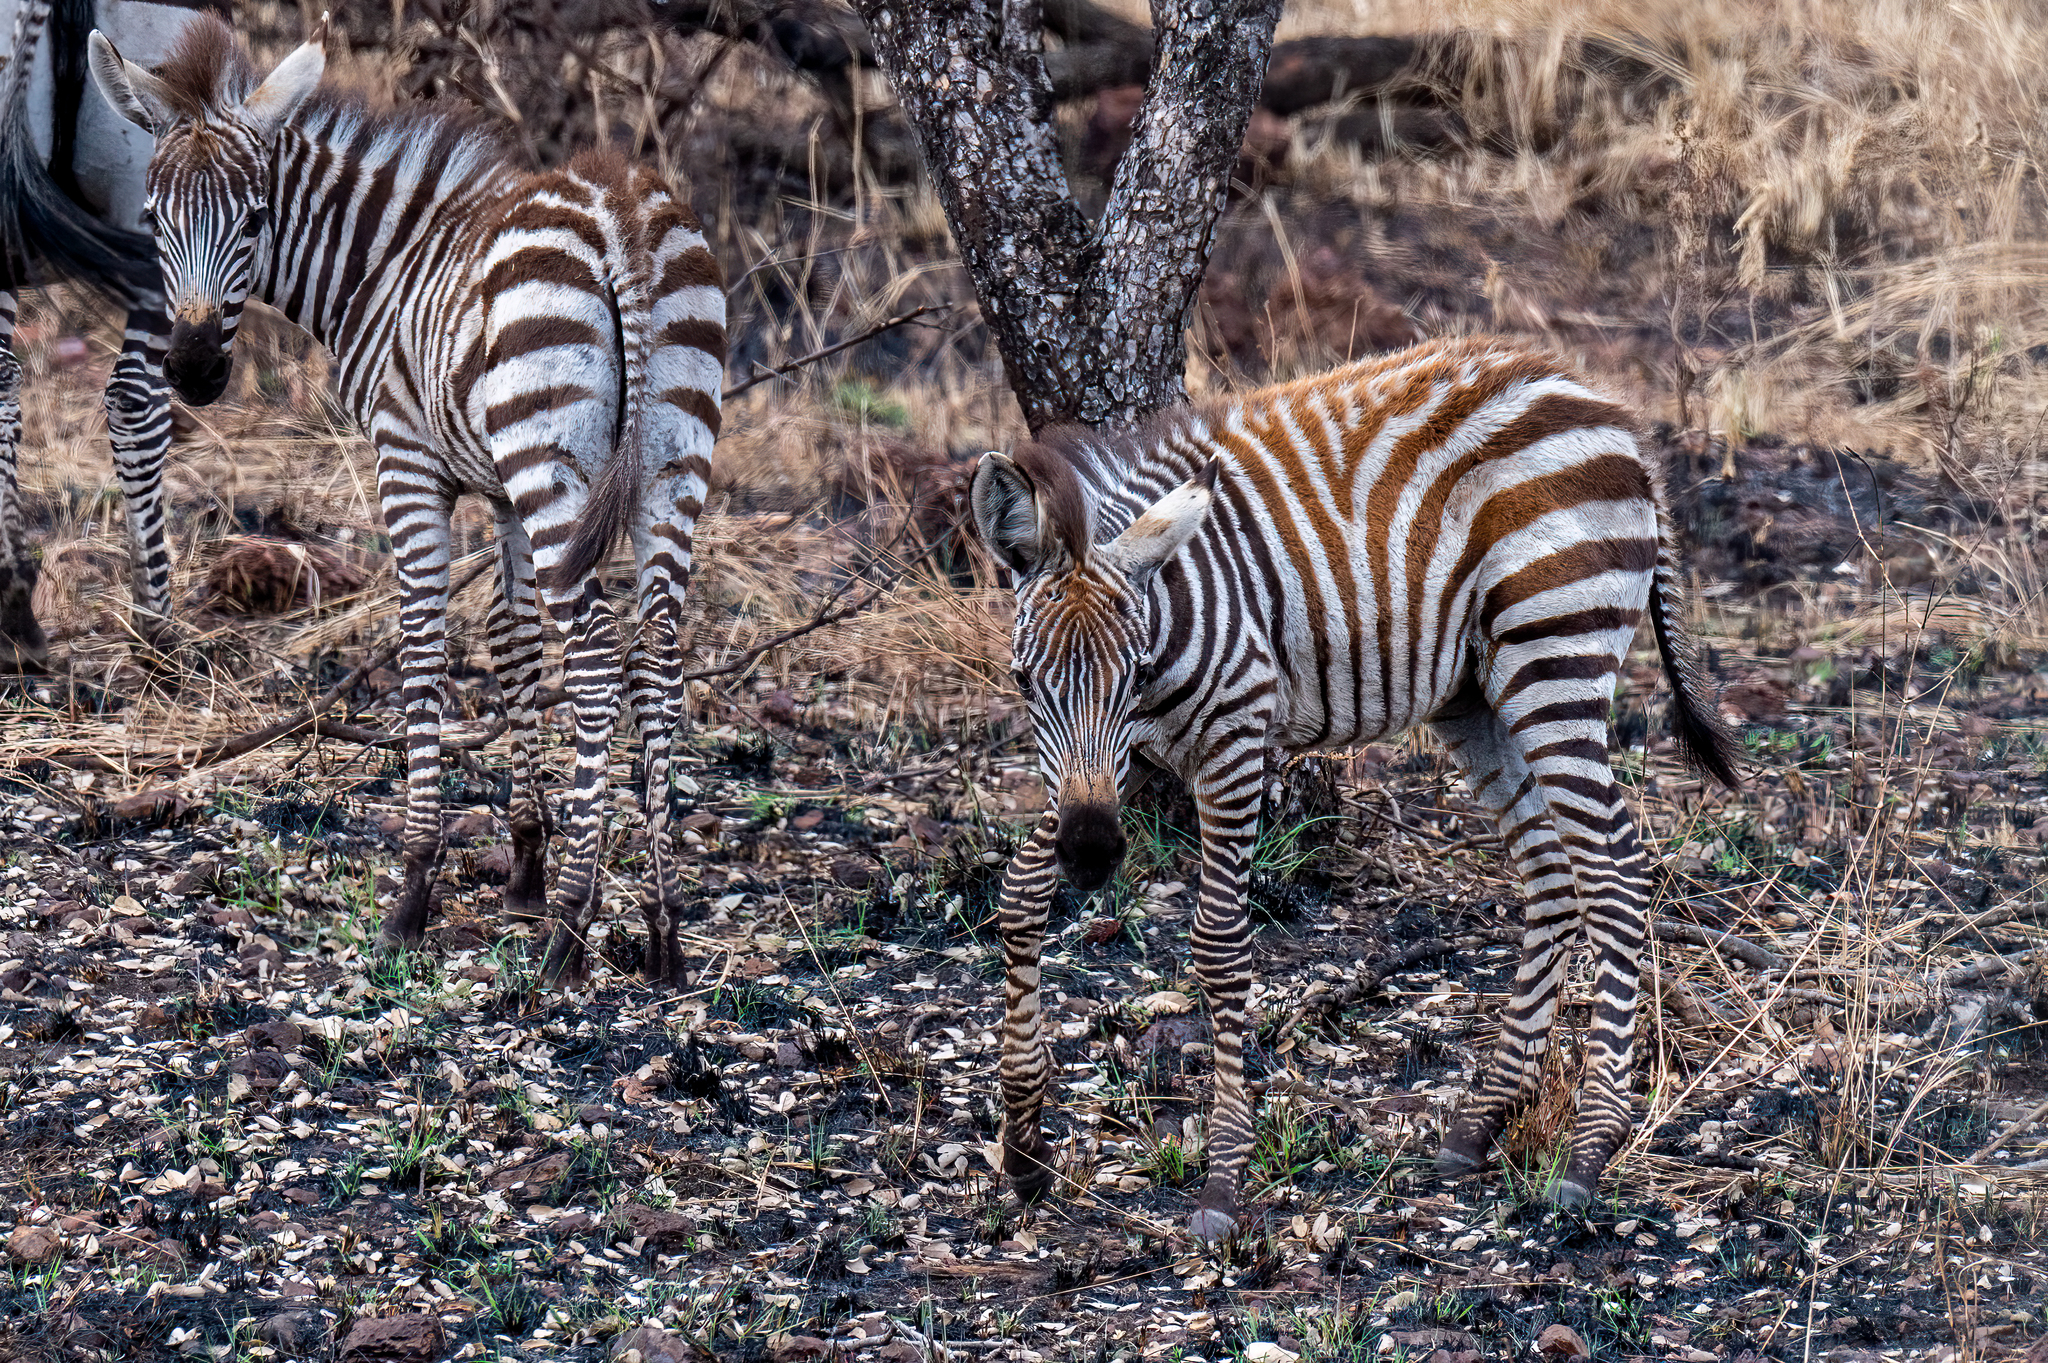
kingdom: Animalia
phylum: Chordata
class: Mammalia
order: Perissodactyla
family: Equidae
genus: Equus
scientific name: Equus quagga
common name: Plains zebra
